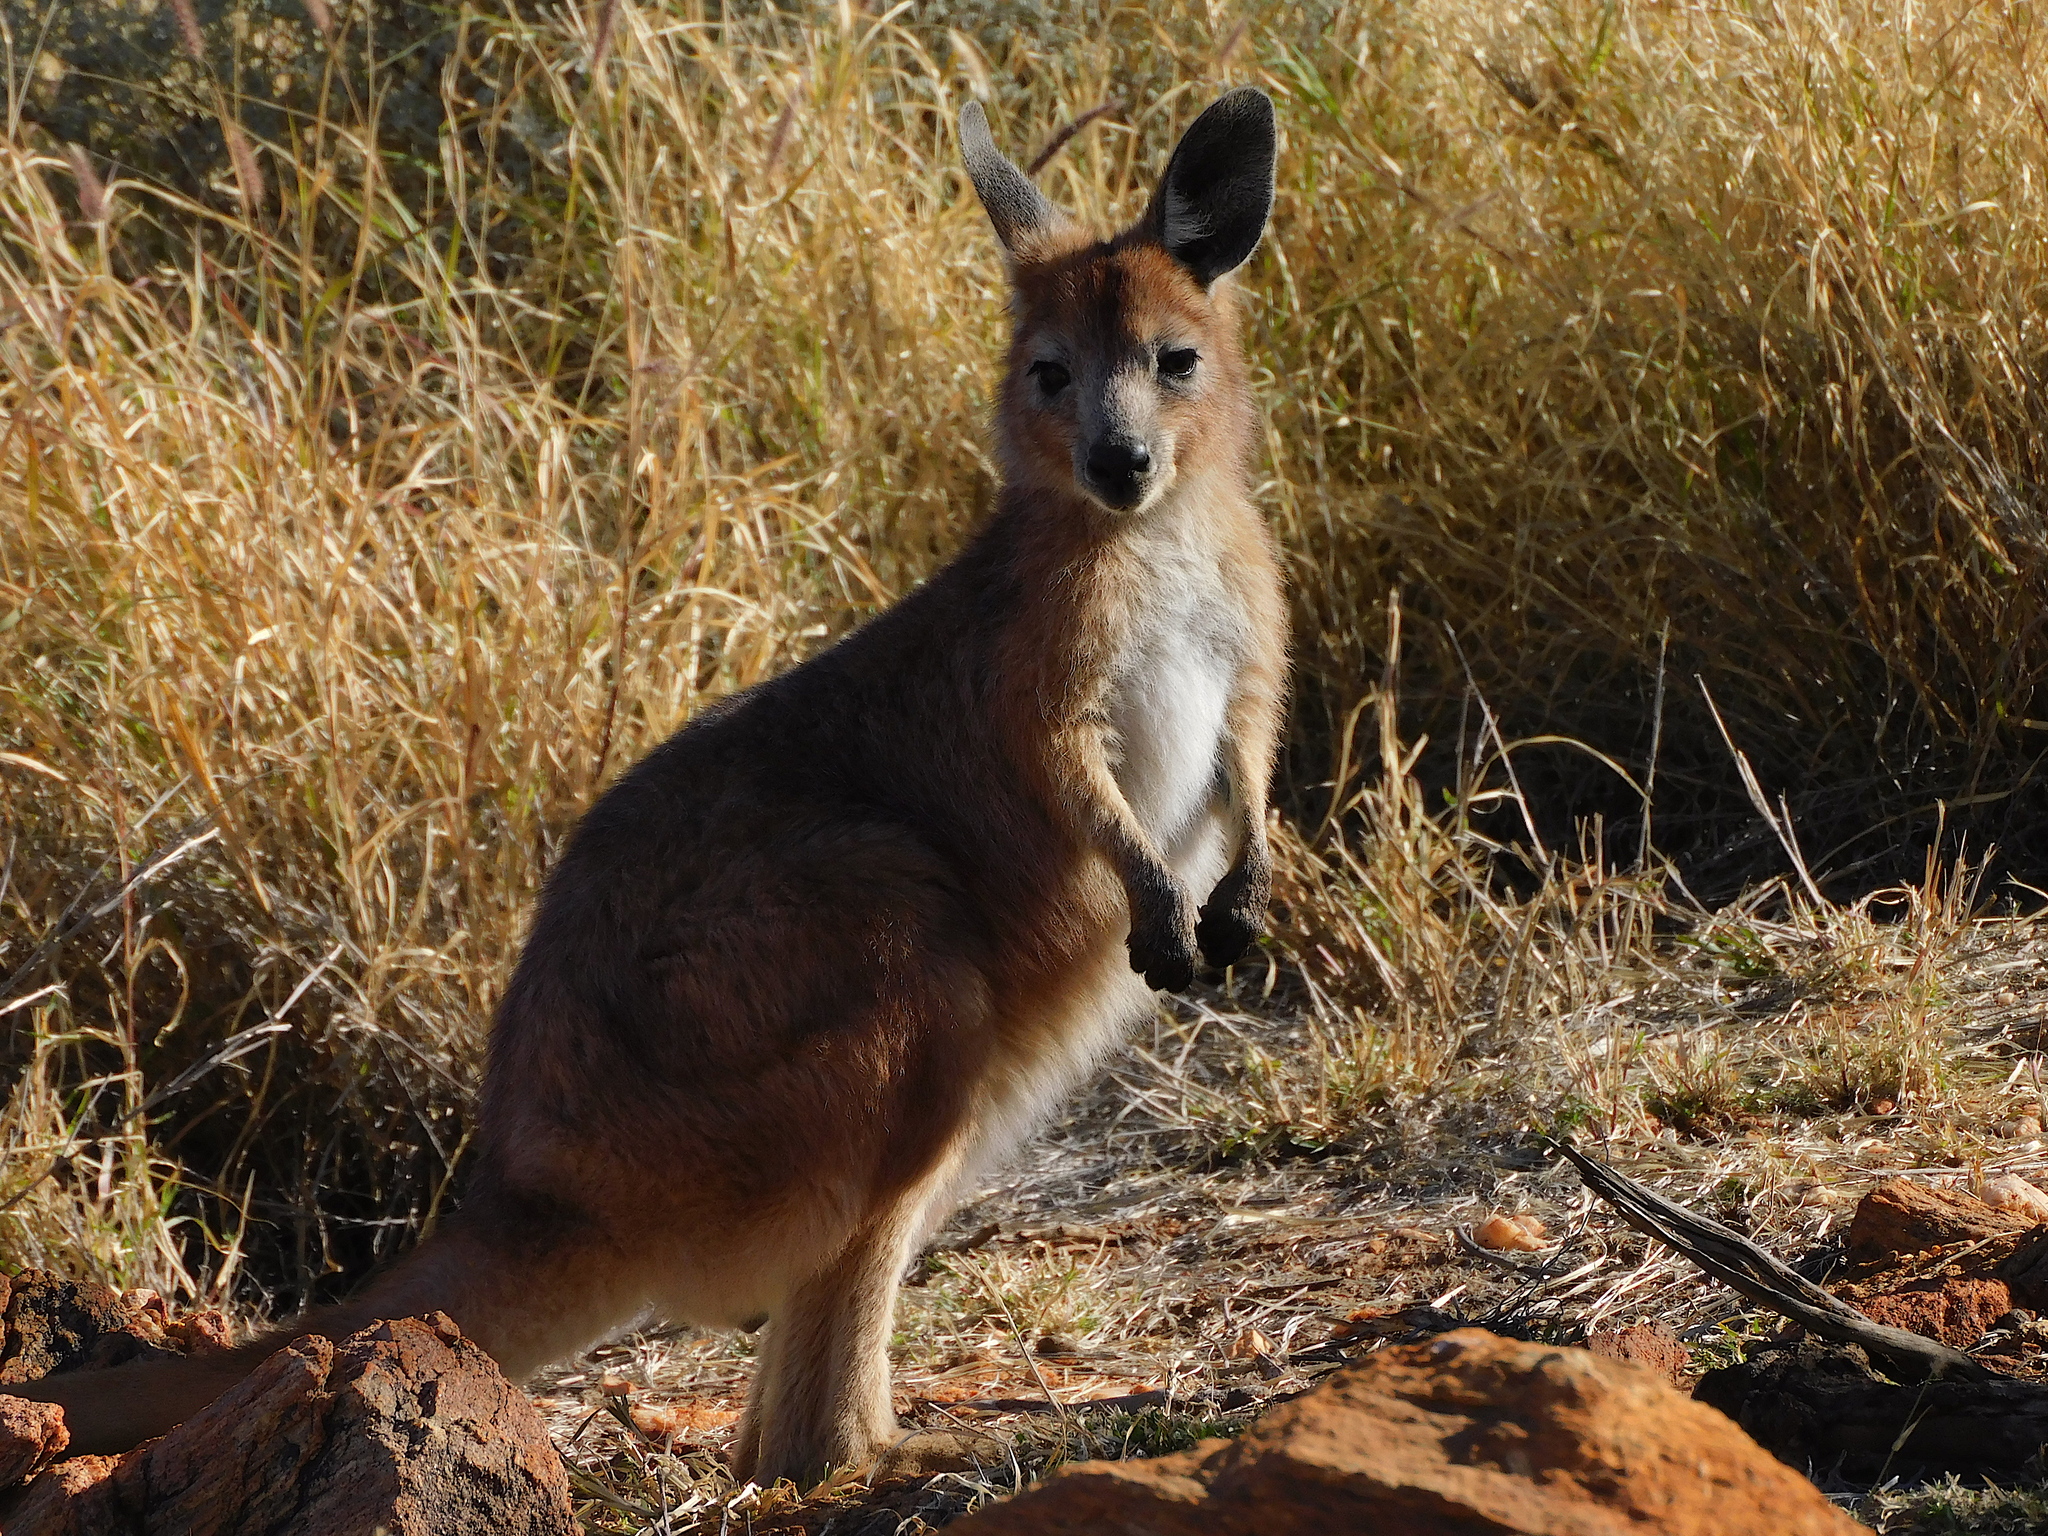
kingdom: Animalia
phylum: Chordata
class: Mammalia
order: Diprotodontia
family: Macropodidae
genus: Macropus
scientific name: Macropus robustus
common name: Eastern wallaroo
